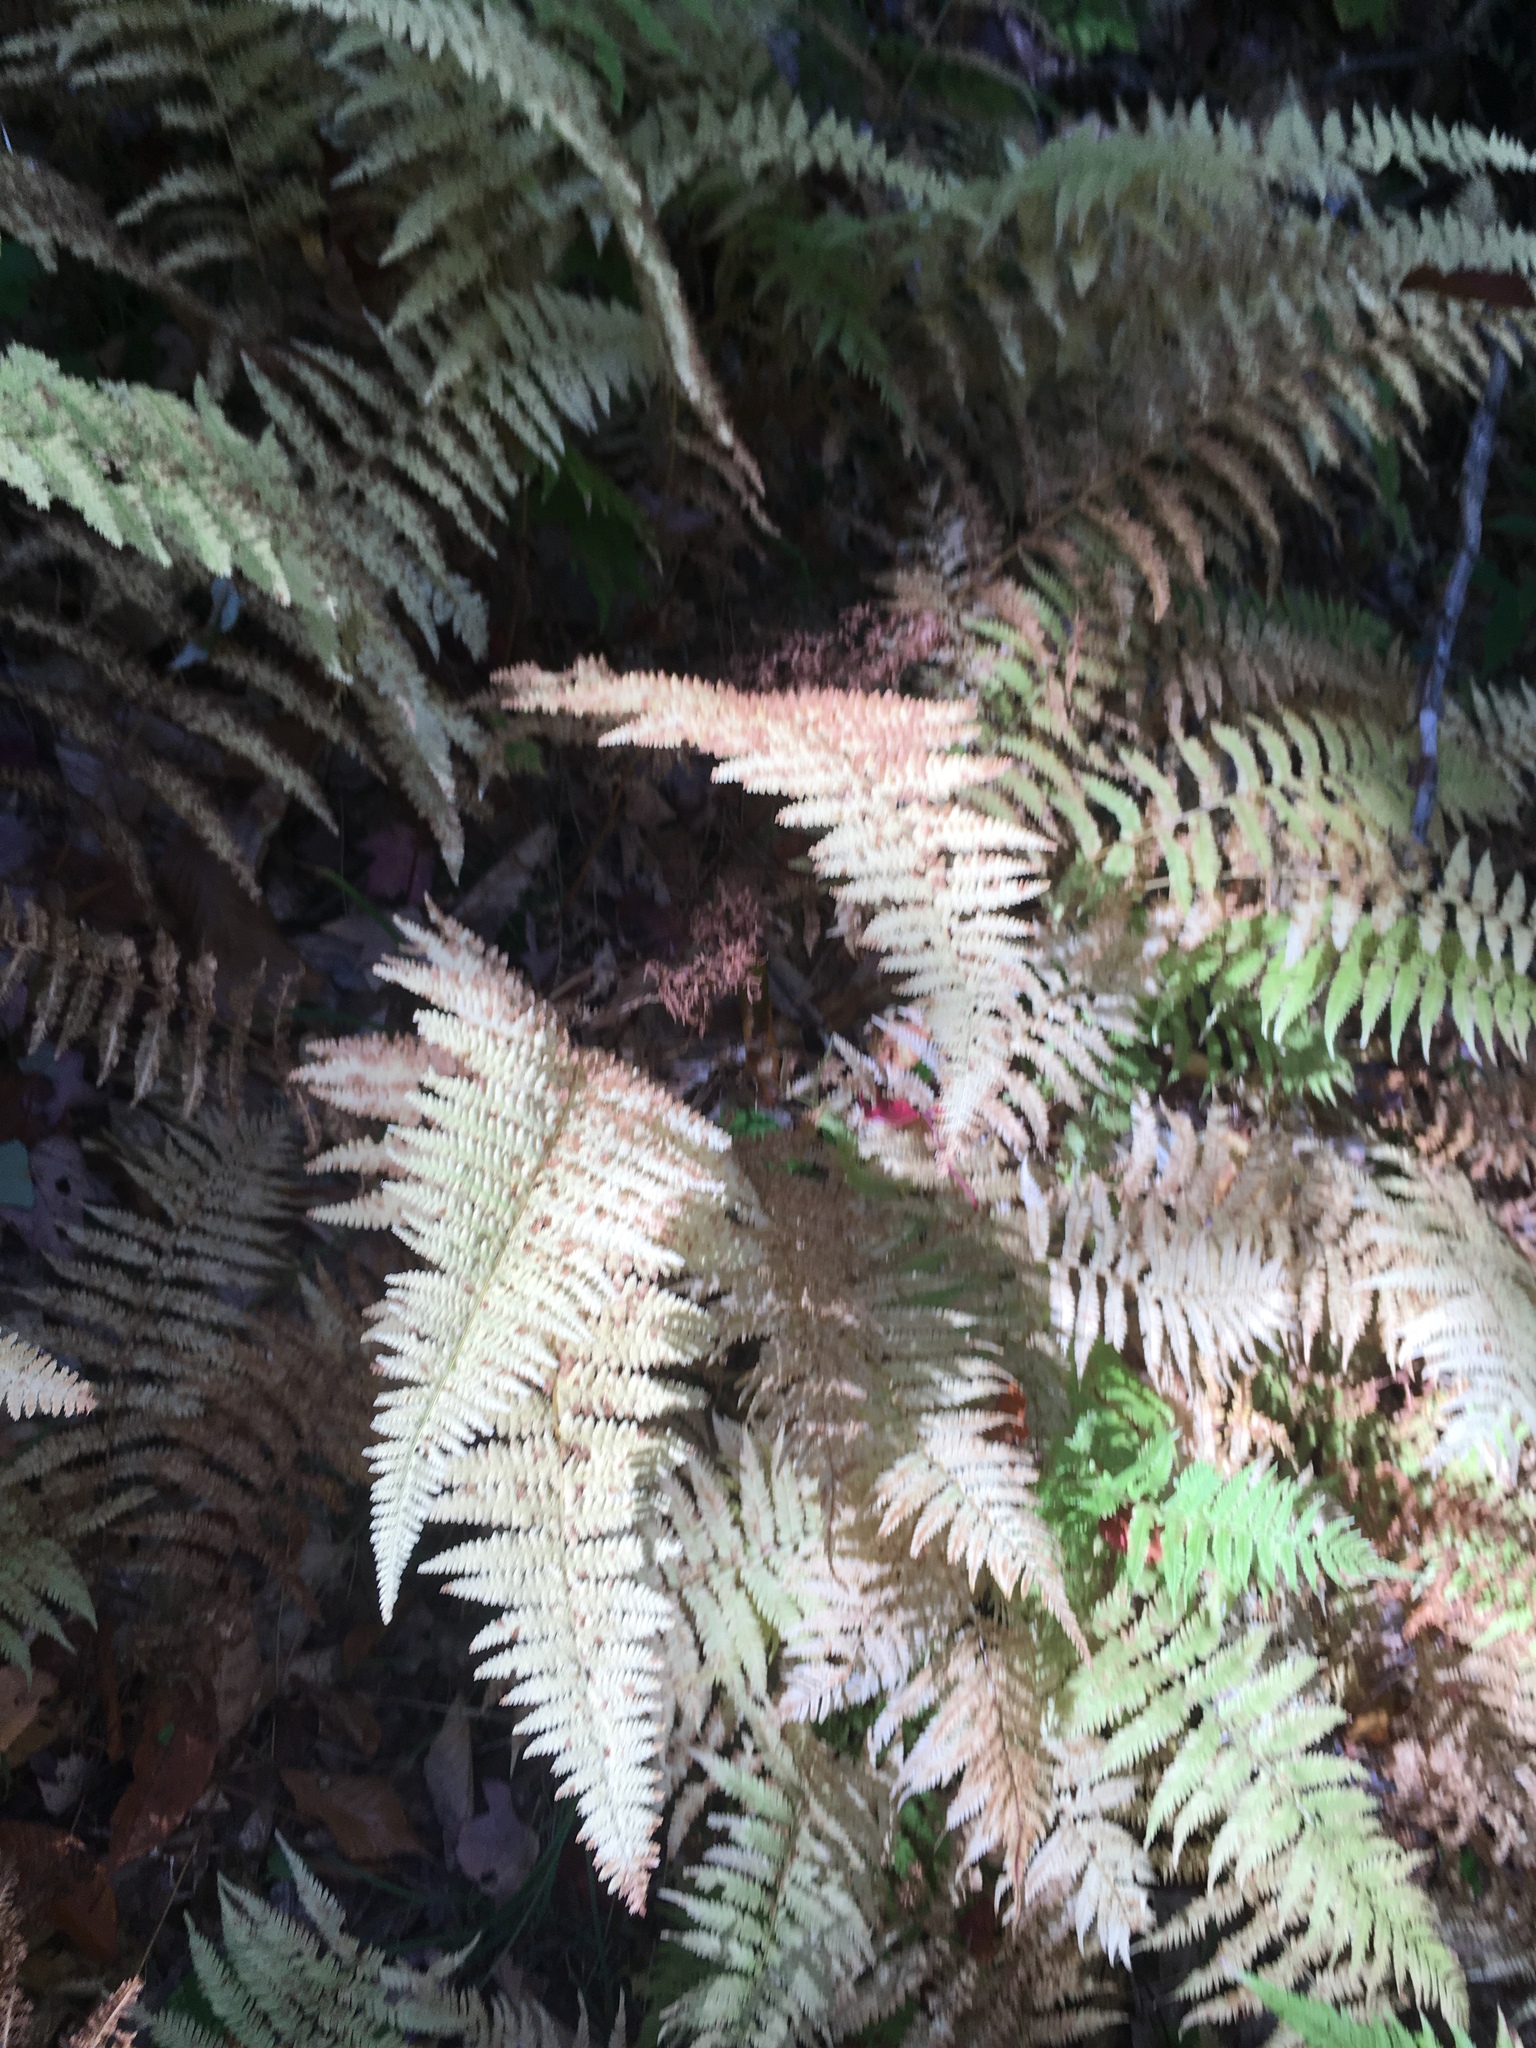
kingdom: Plantae
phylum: Tracheophyta
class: Polypodiopsida
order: Polypodiales
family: Dennstaedtiaceae
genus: Sitobolium
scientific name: Sitobolium punctilobum
